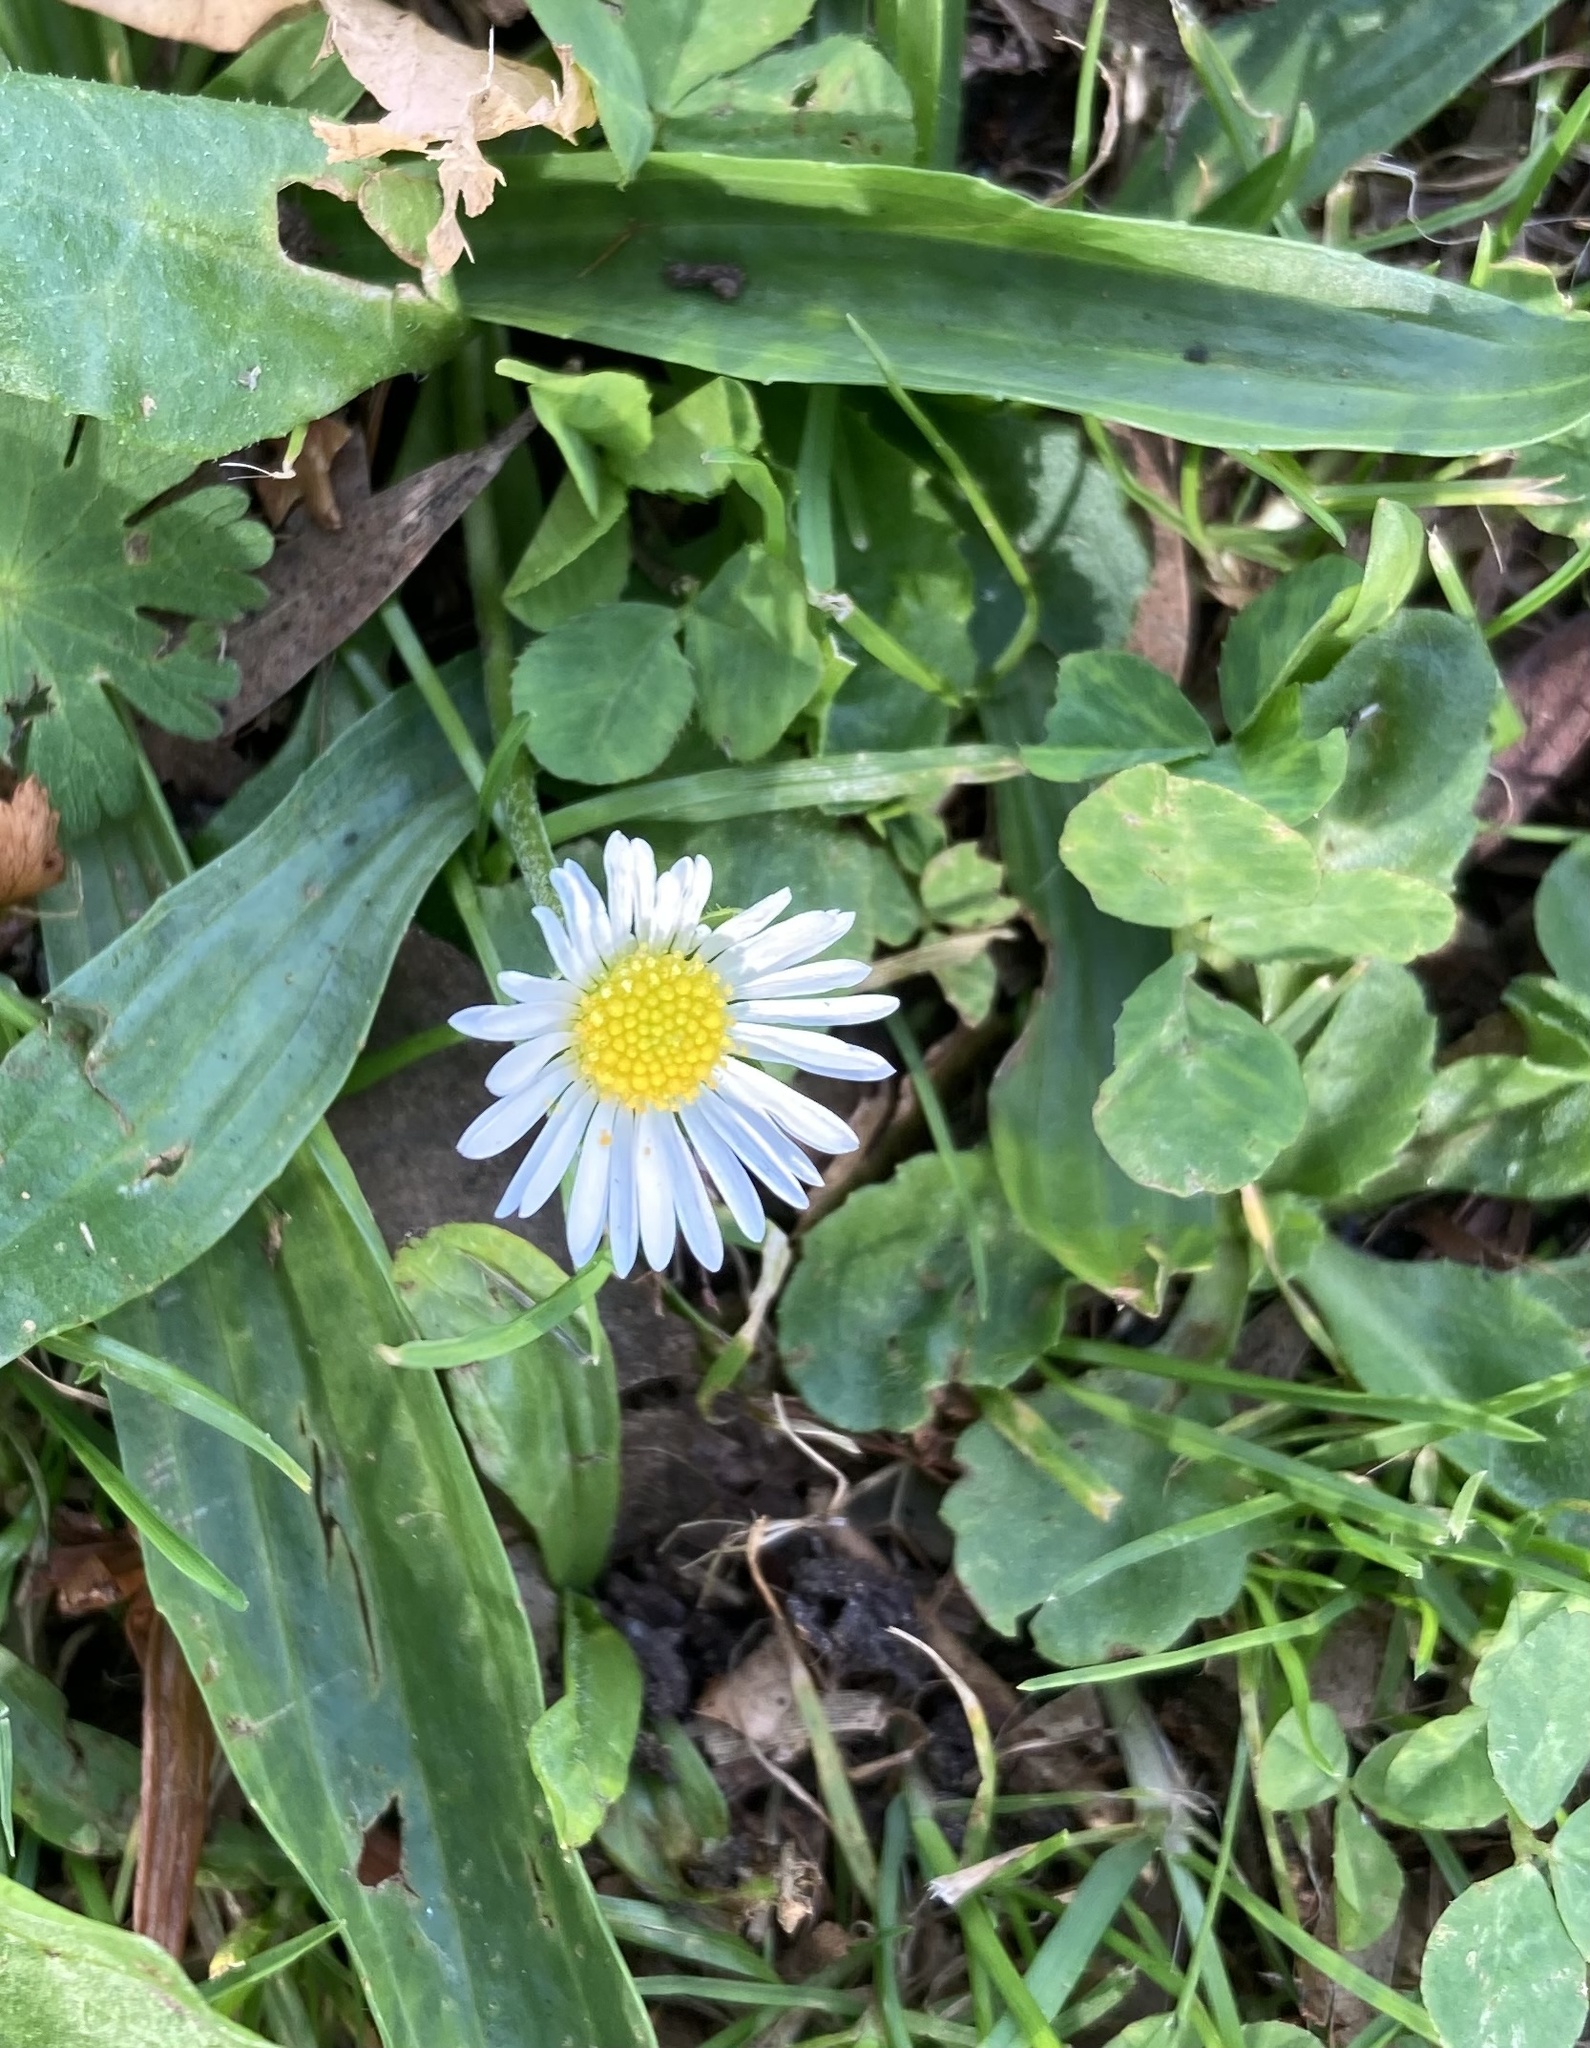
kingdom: Plantae
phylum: Tracheophyta
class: Magnoliopsida
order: Asterales
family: Asteraceae
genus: Bellis
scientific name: Bellis perennis
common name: Lawndaisy
